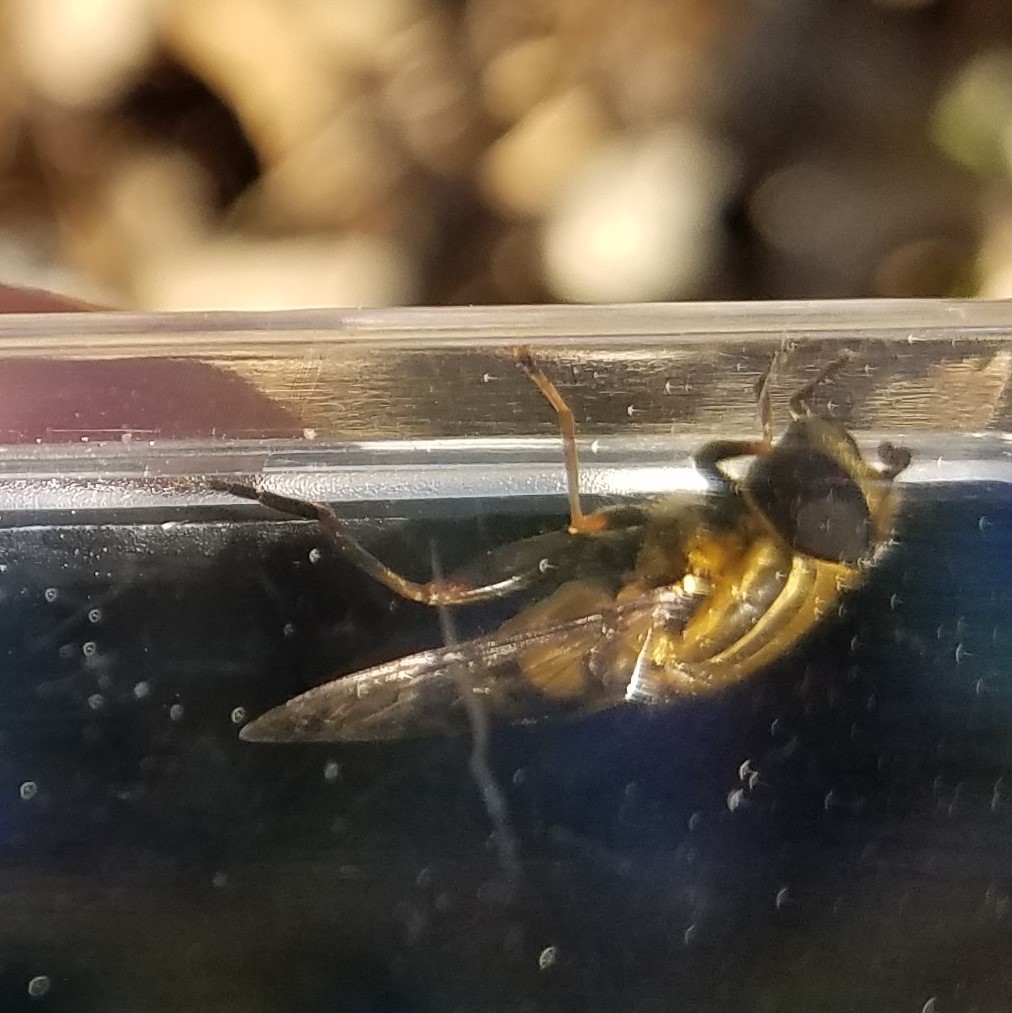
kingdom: Animalia
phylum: Arthropoda
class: Insecta
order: Diptera
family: Syrphidae
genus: Helophilus
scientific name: Helophilus fasciatus
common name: Narrow-headed marsh fly
